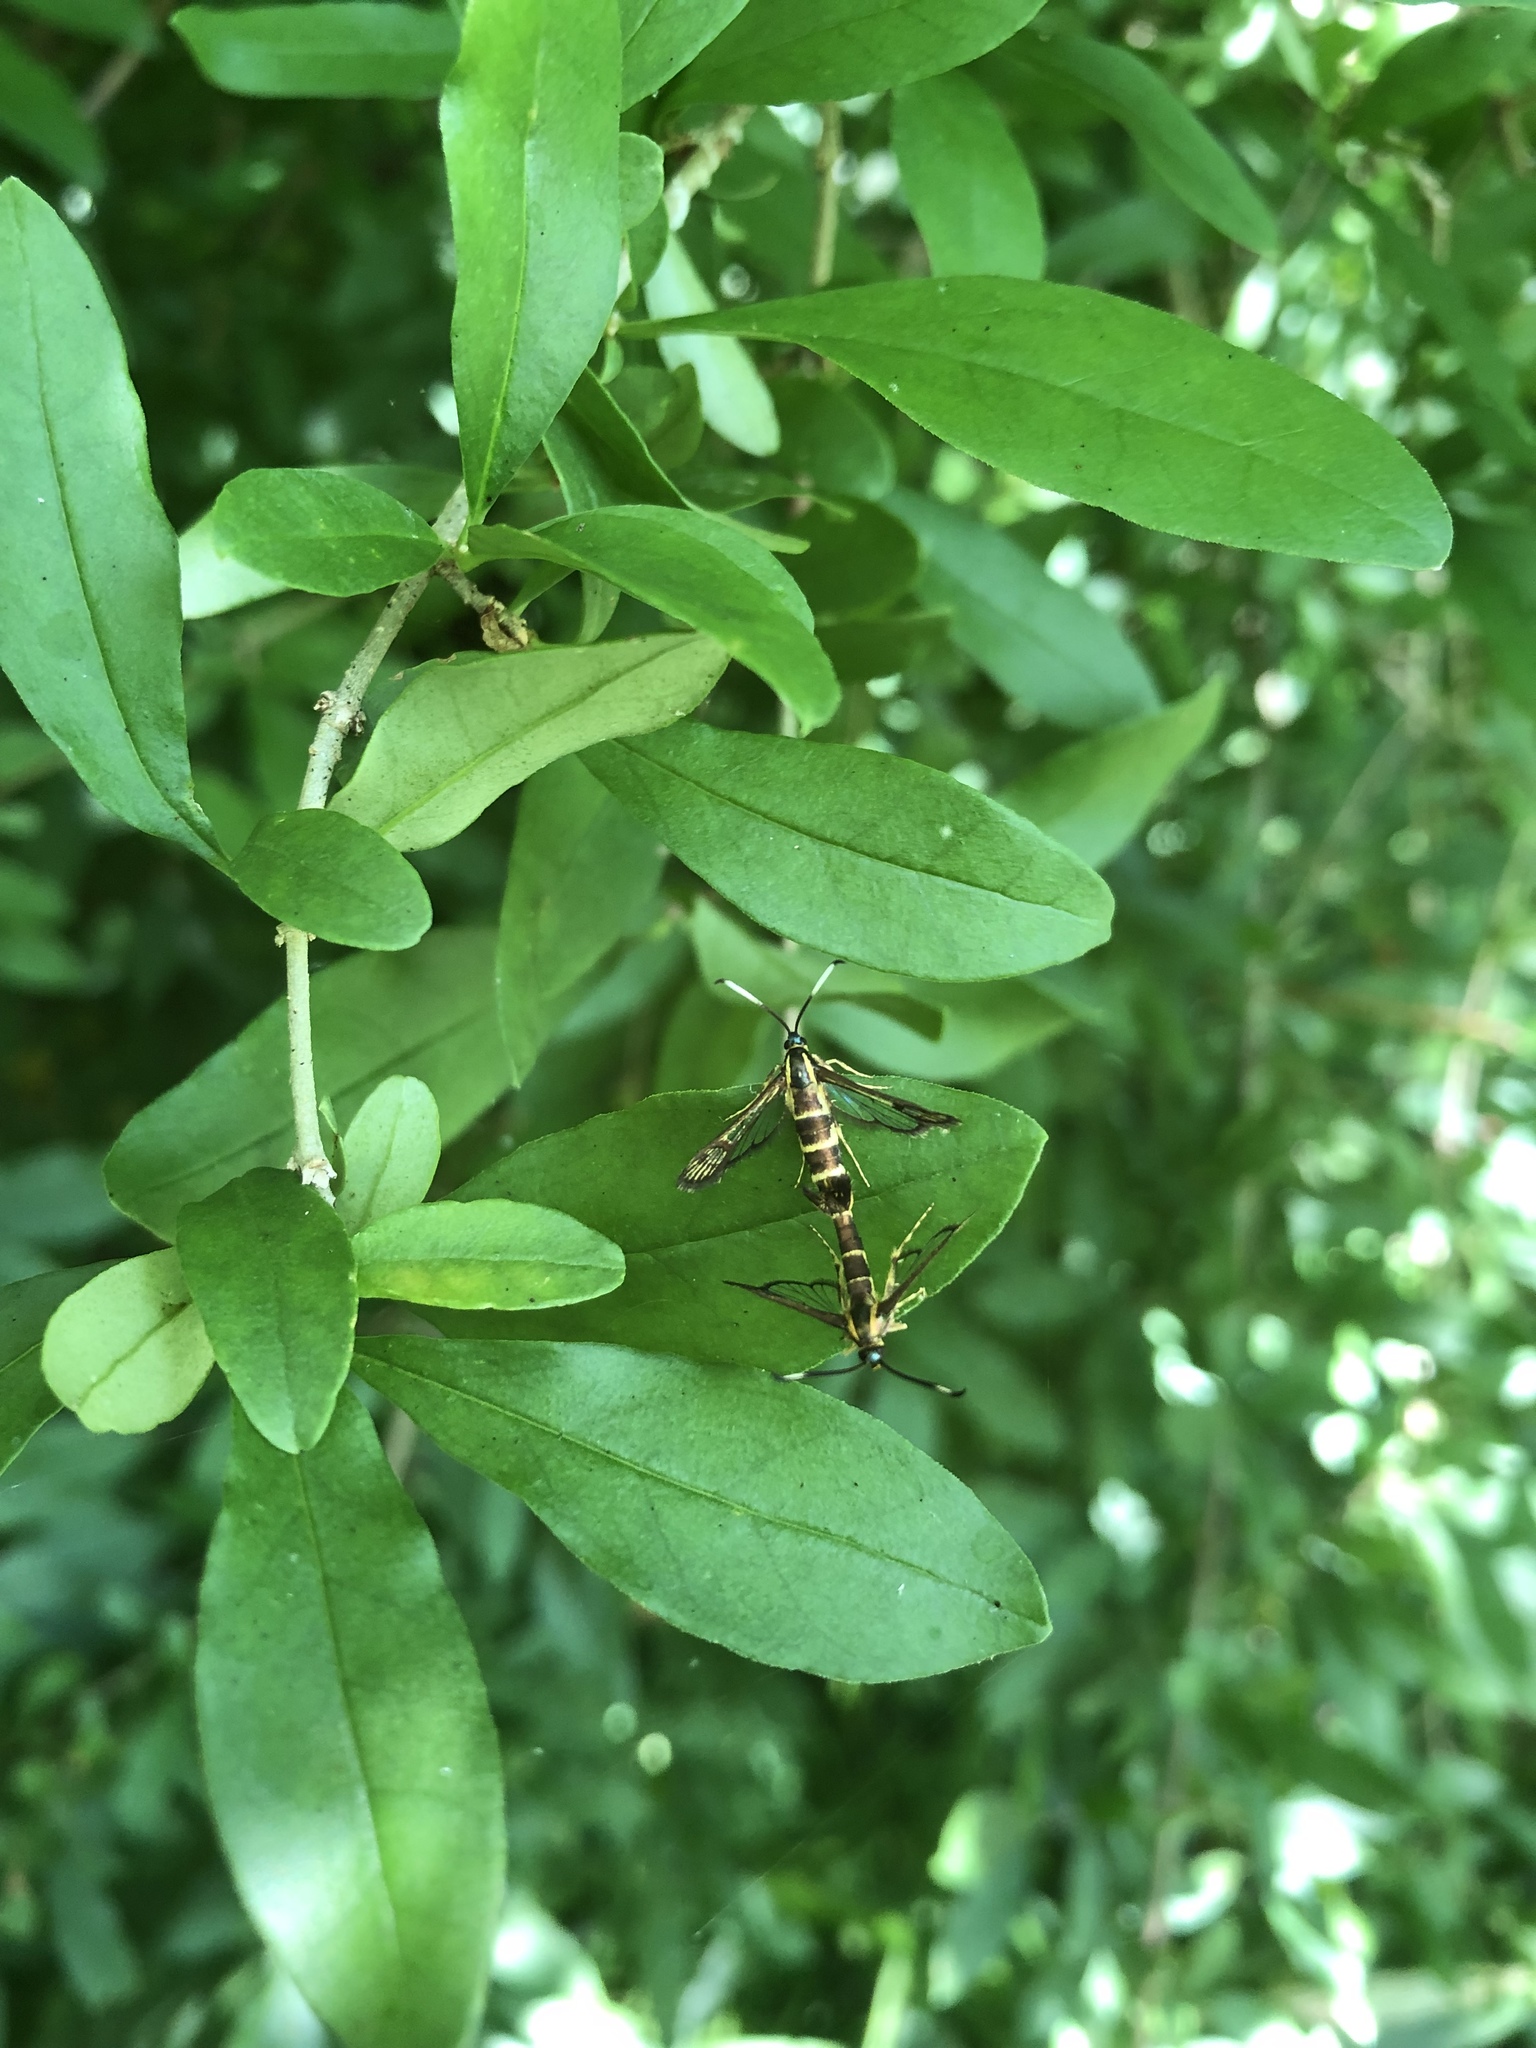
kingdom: Animalia
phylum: Arthropoda
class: Insecta
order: Lepidoptera
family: Sesiidae
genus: Carmenta
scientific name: Carmenta bassiformis
